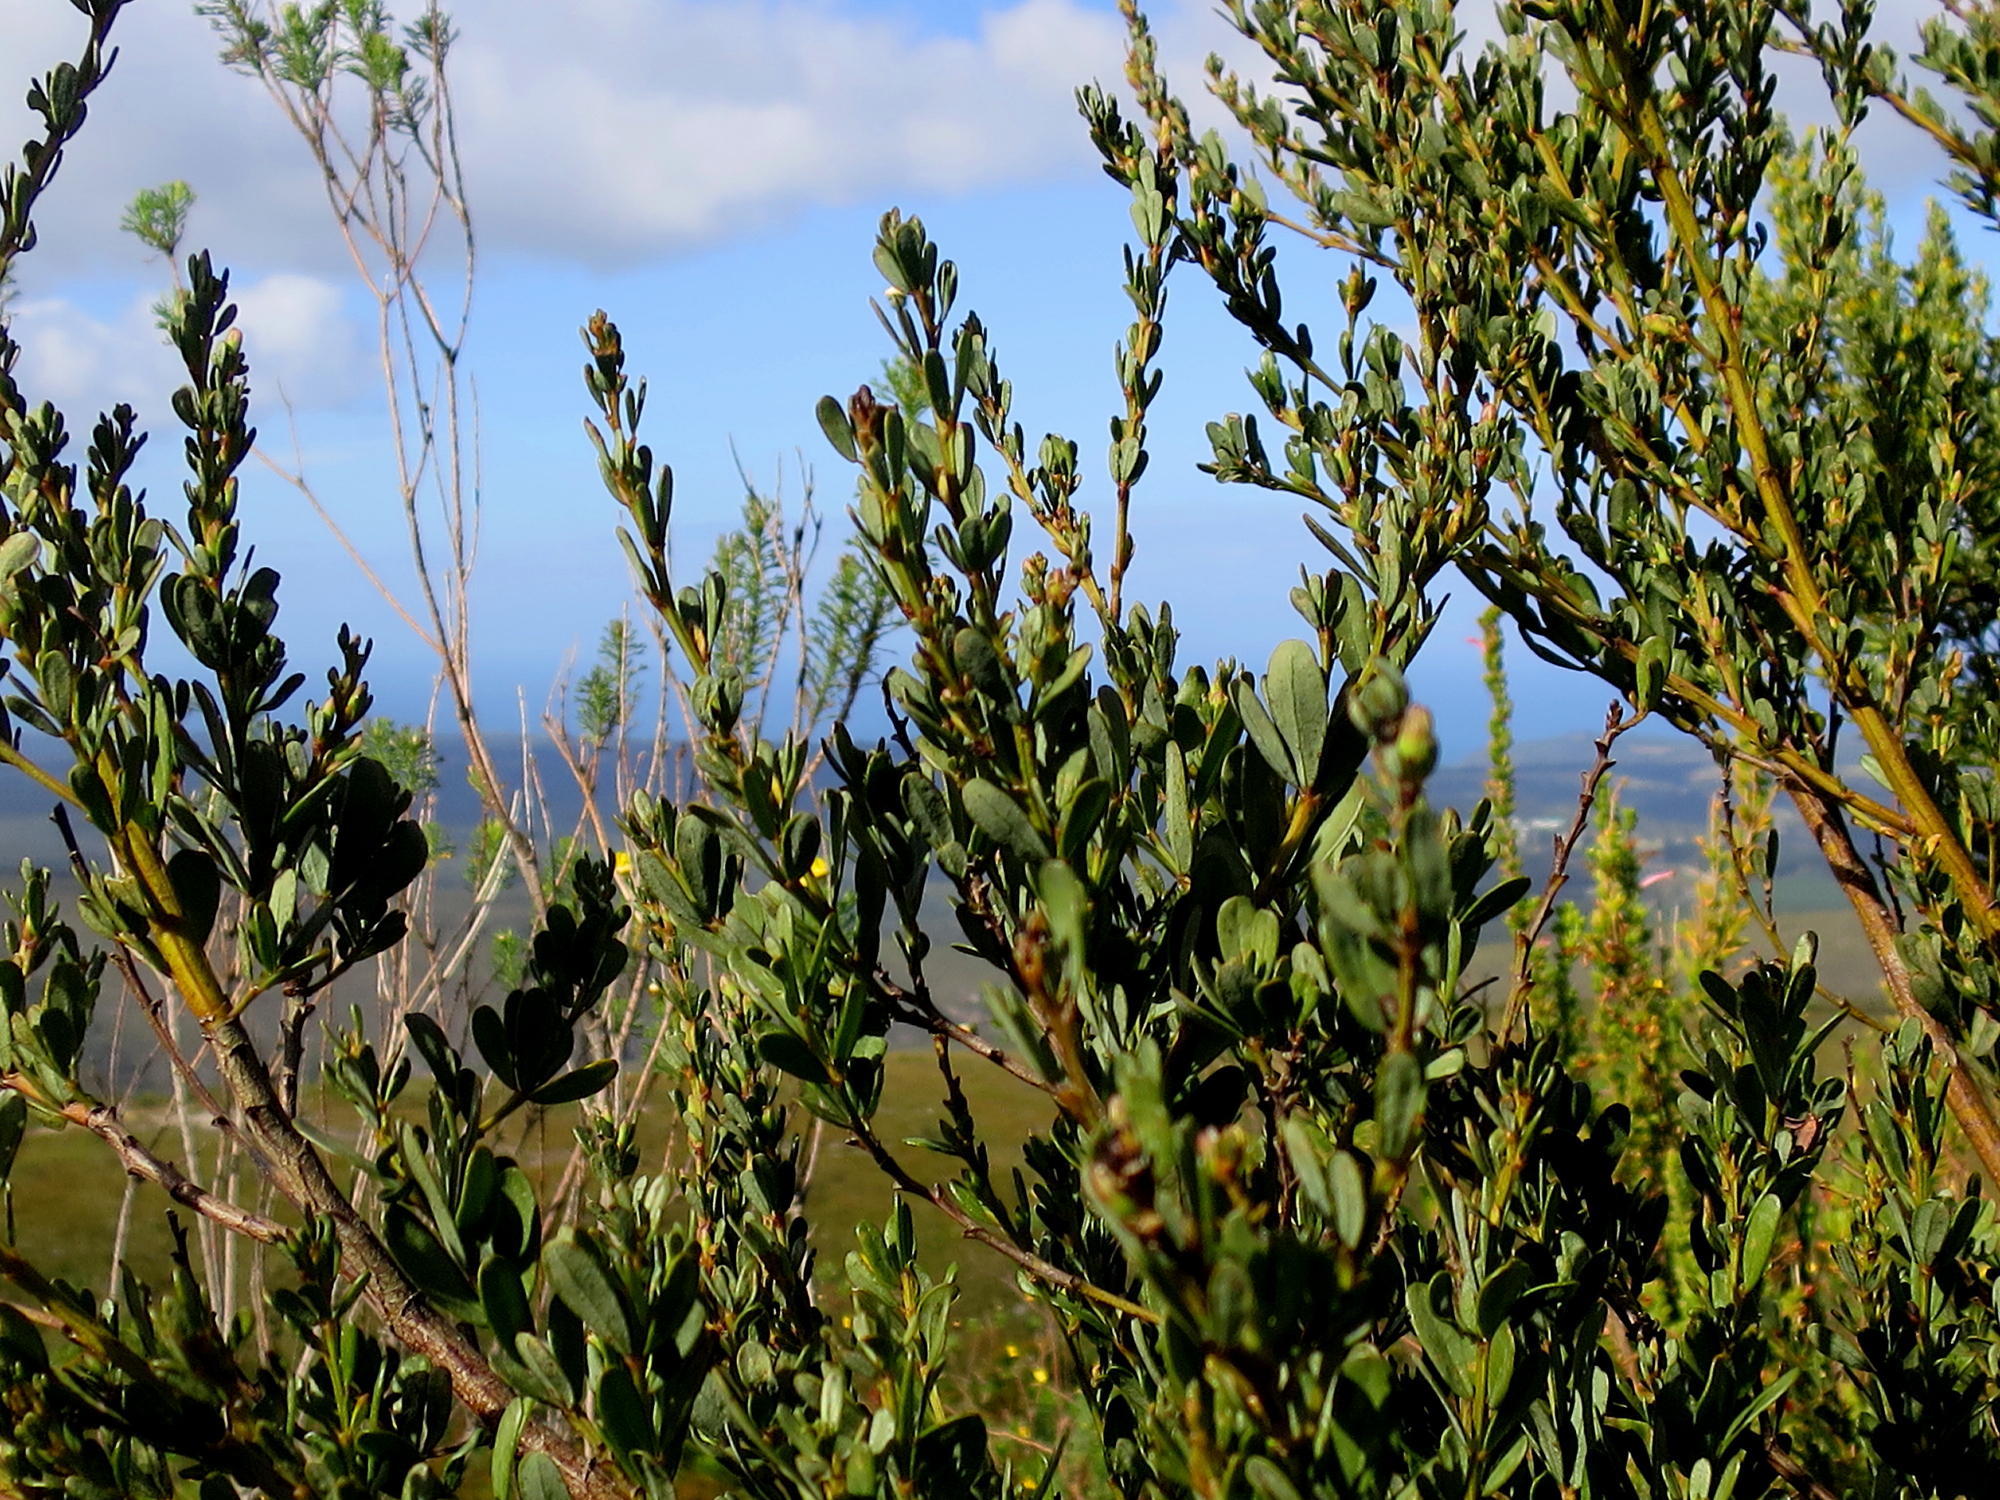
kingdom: Plantae
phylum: Tracheophyta
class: Magnoliopsida
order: Fabales
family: Fabaceae
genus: Cyclopia
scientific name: Cyclopia subternata
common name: Honeybush tea
